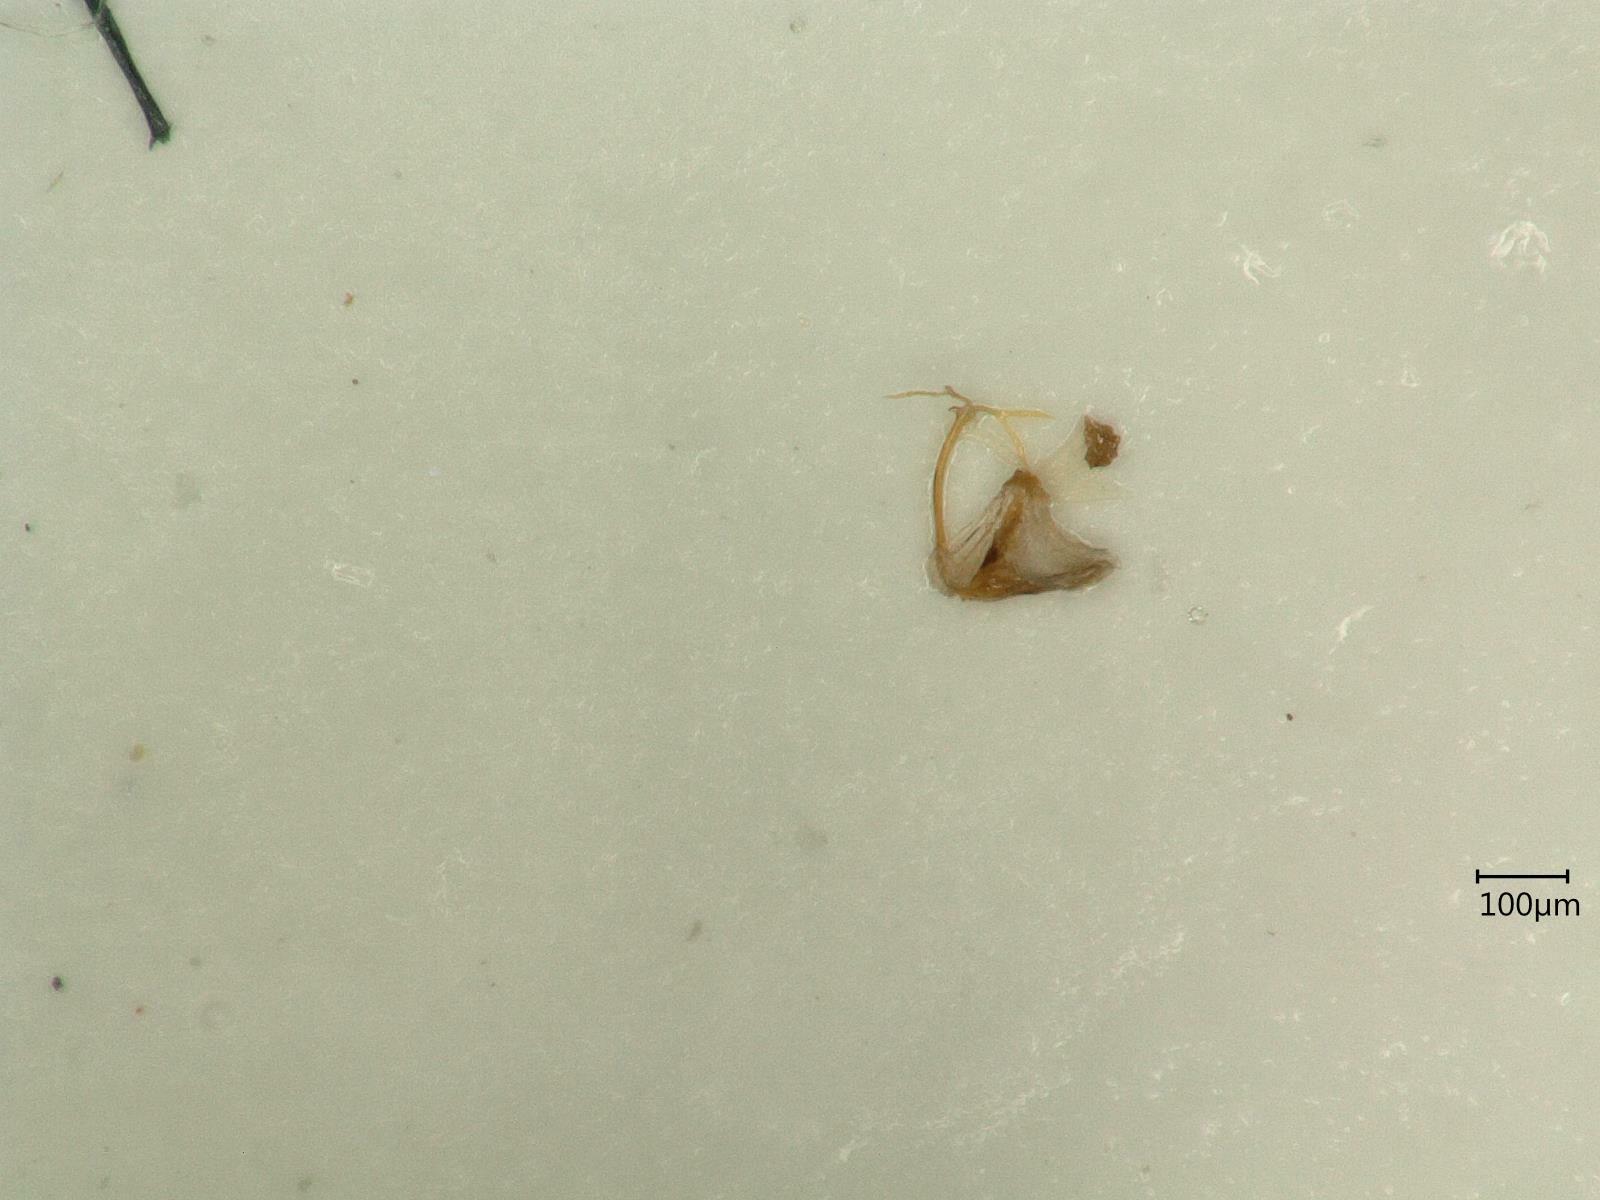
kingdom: Animalia
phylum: Arthropoda
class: Insecta
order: Hemiptera
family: Cicadellidae
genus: Eupteryx
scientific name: Eupteryx calcarata
